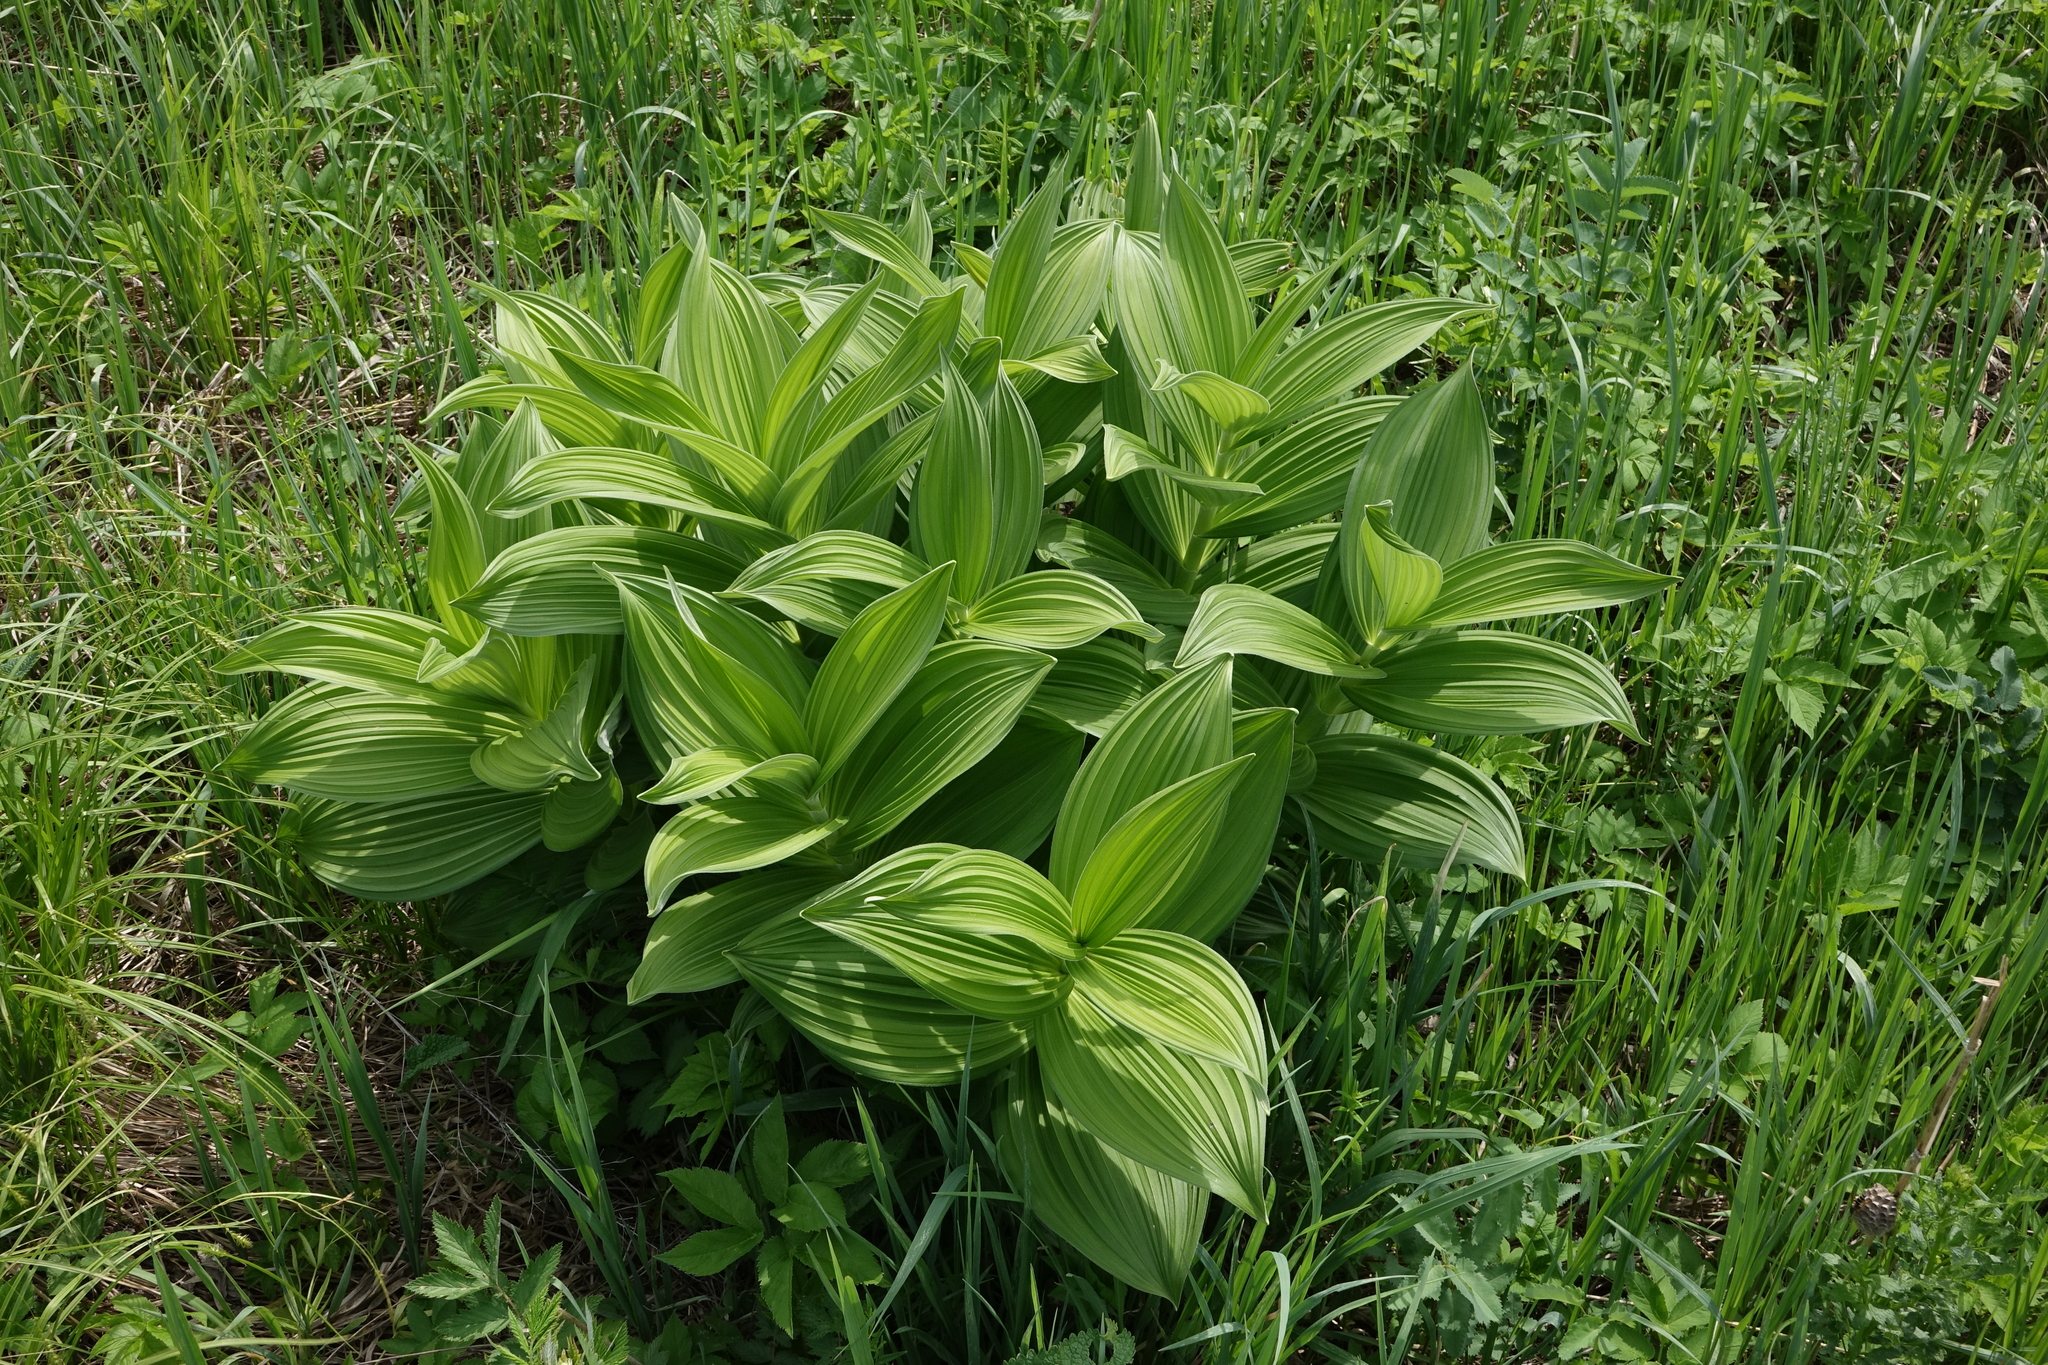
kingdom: Plantae
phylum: Tracheophyta
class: Liliopsida
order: Liliales
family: Melanthiaceae
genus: Veratrum
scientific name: Veratrum lobelianum
